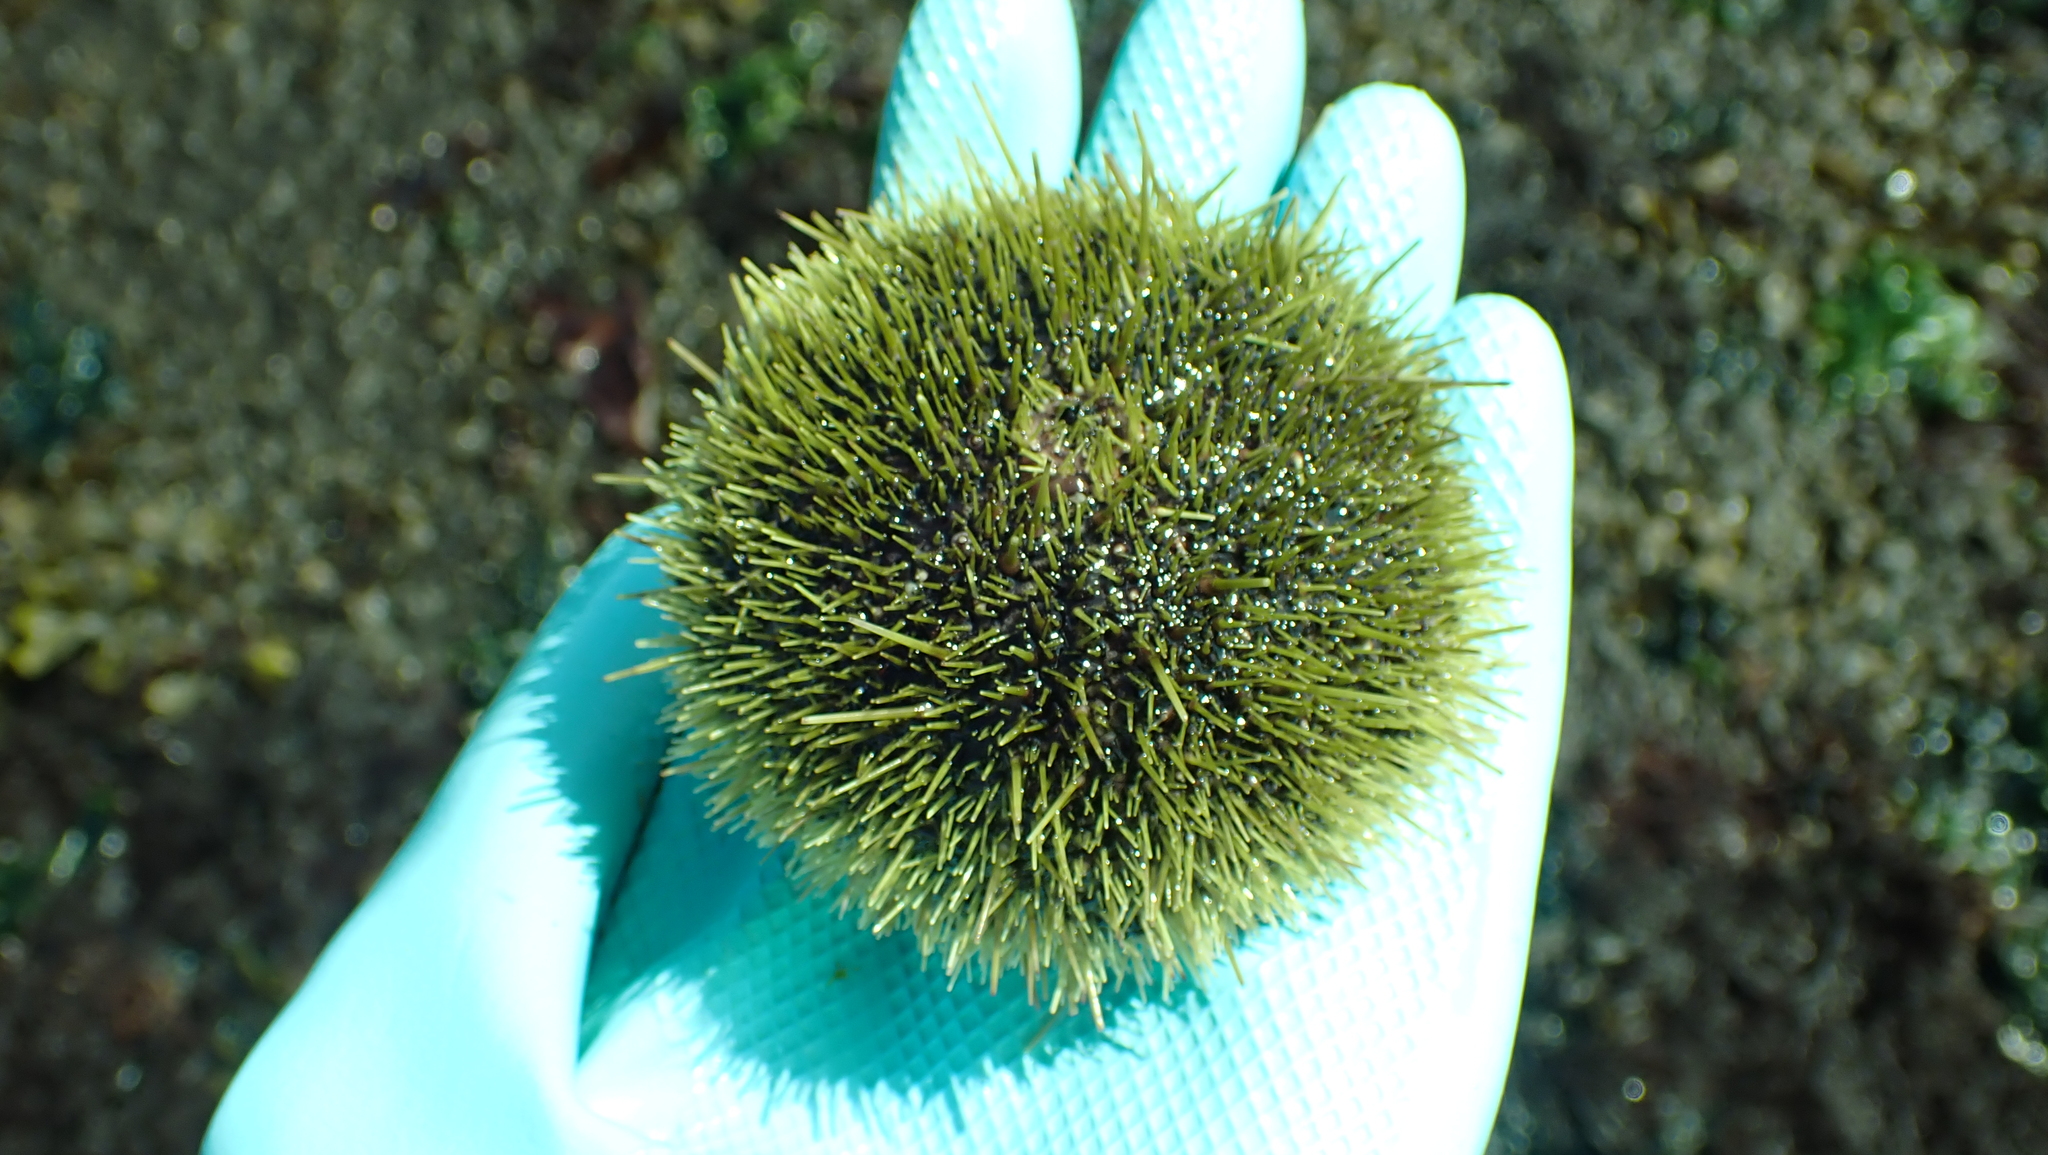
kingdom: Animalia
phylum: Echinodermata
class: Echinoidea
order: Camarodonta
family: Strongylocentrotidae
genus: Strongylocentrotus
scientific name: Strongylocentrotus droebachiensis
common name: Northern sea urchin
